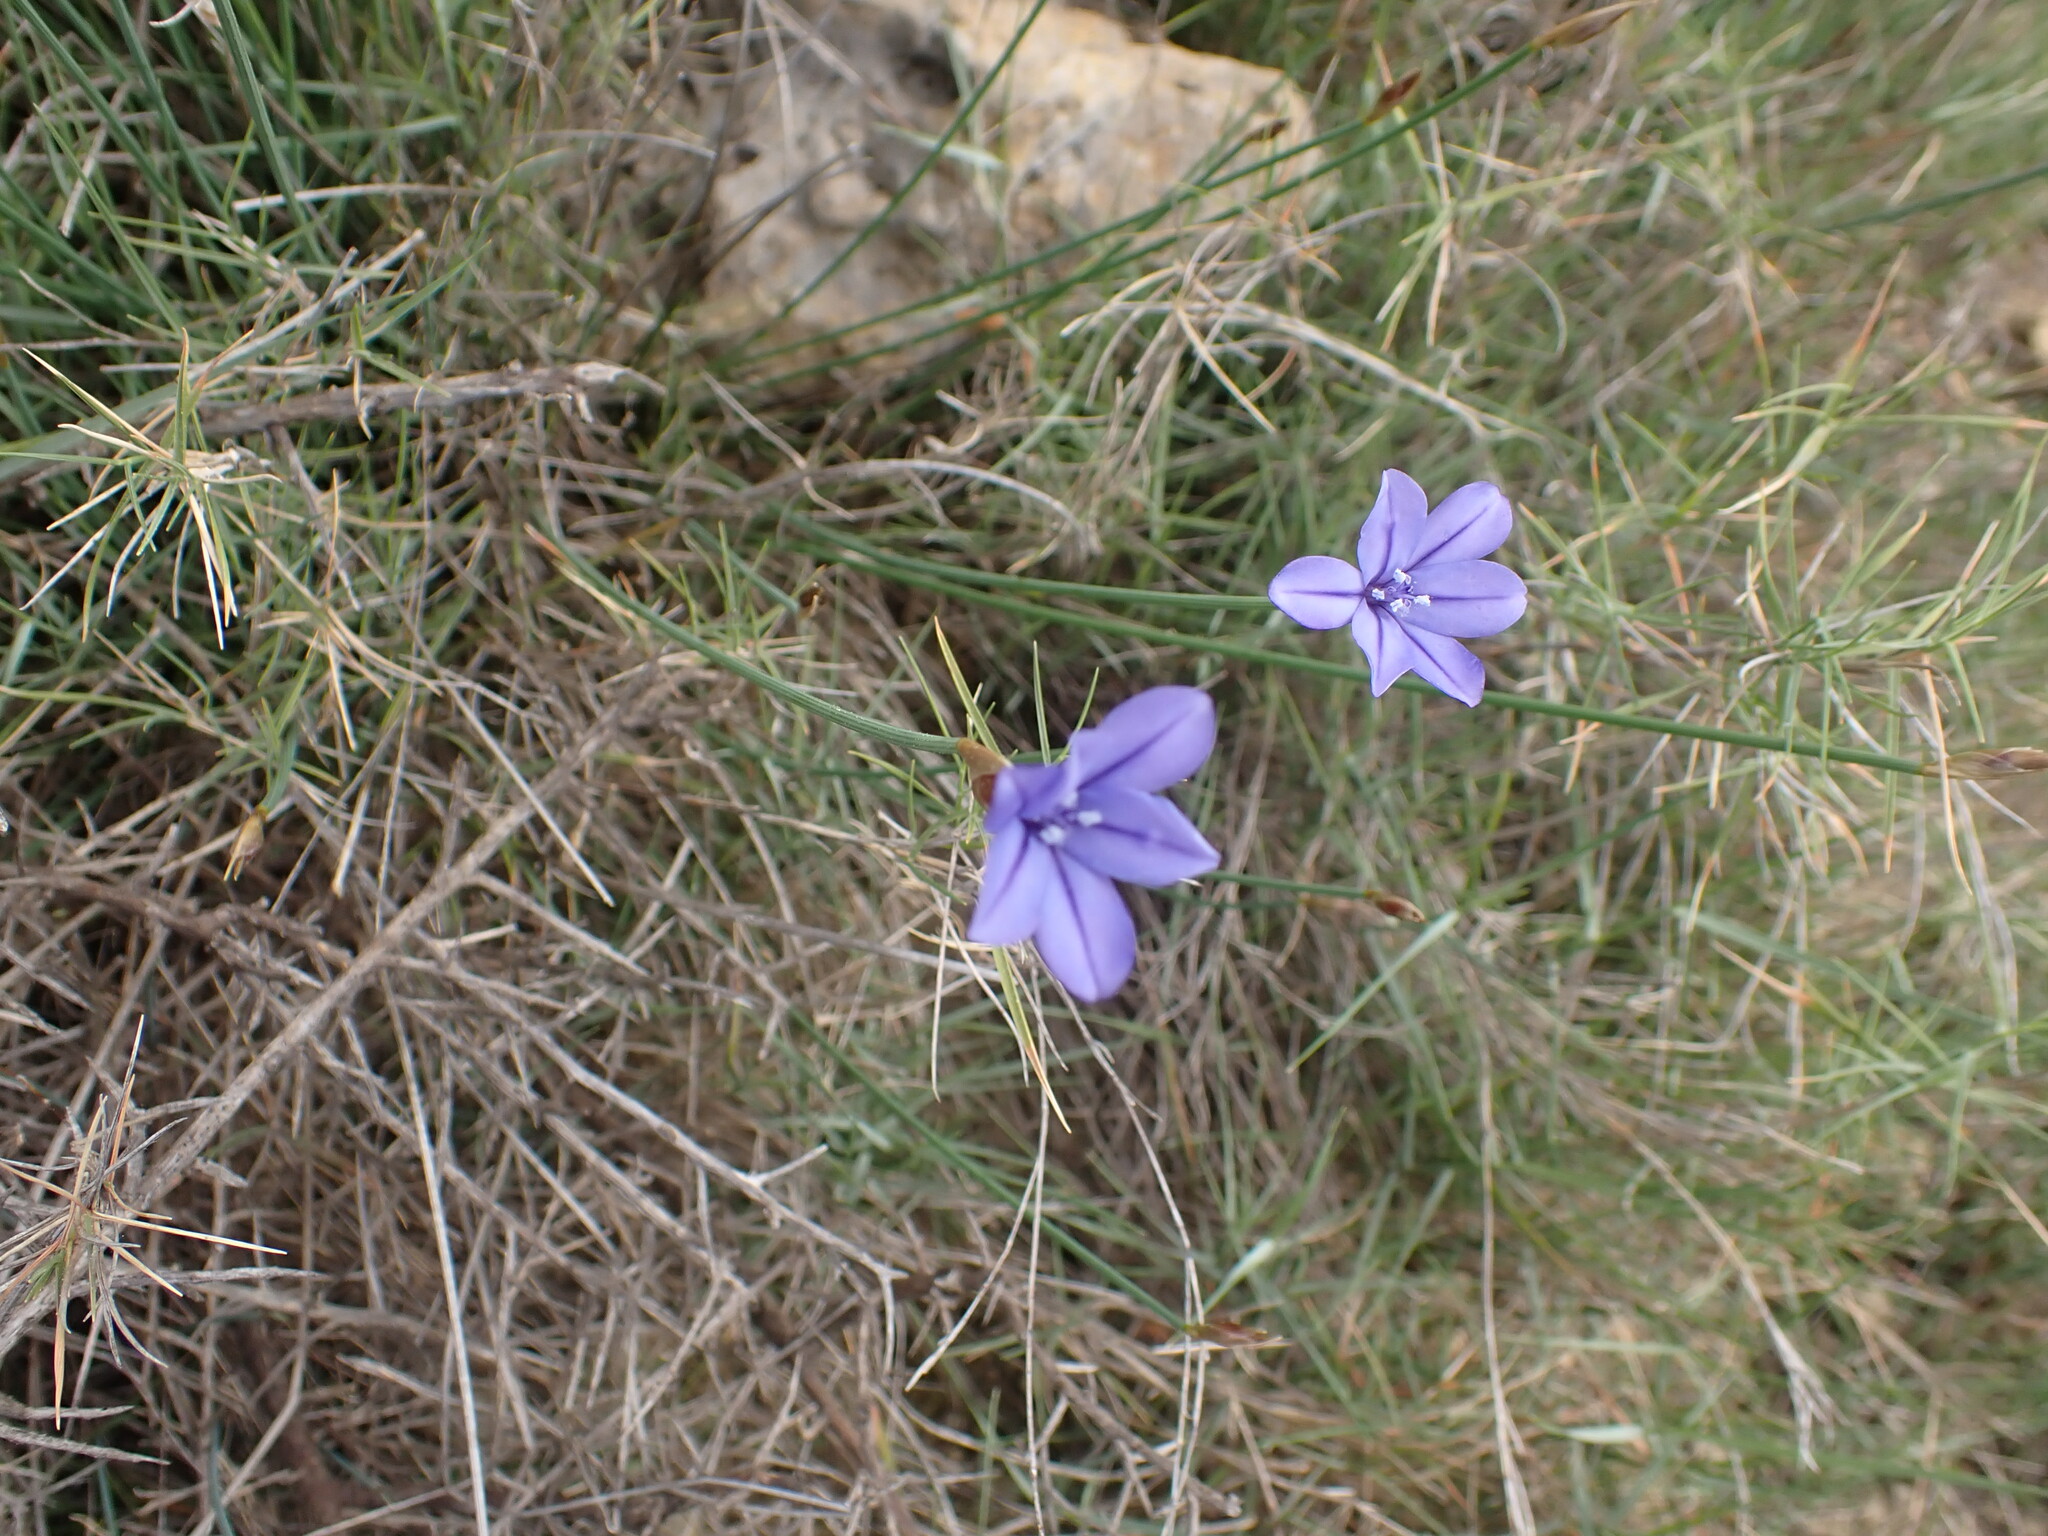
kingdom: Plantae
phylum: Tracheophyta
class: Liliopsida
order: Asparagales
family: Asparagaceae
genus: Aphyllanthes
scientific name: Aphyllanthes monspeliensis
